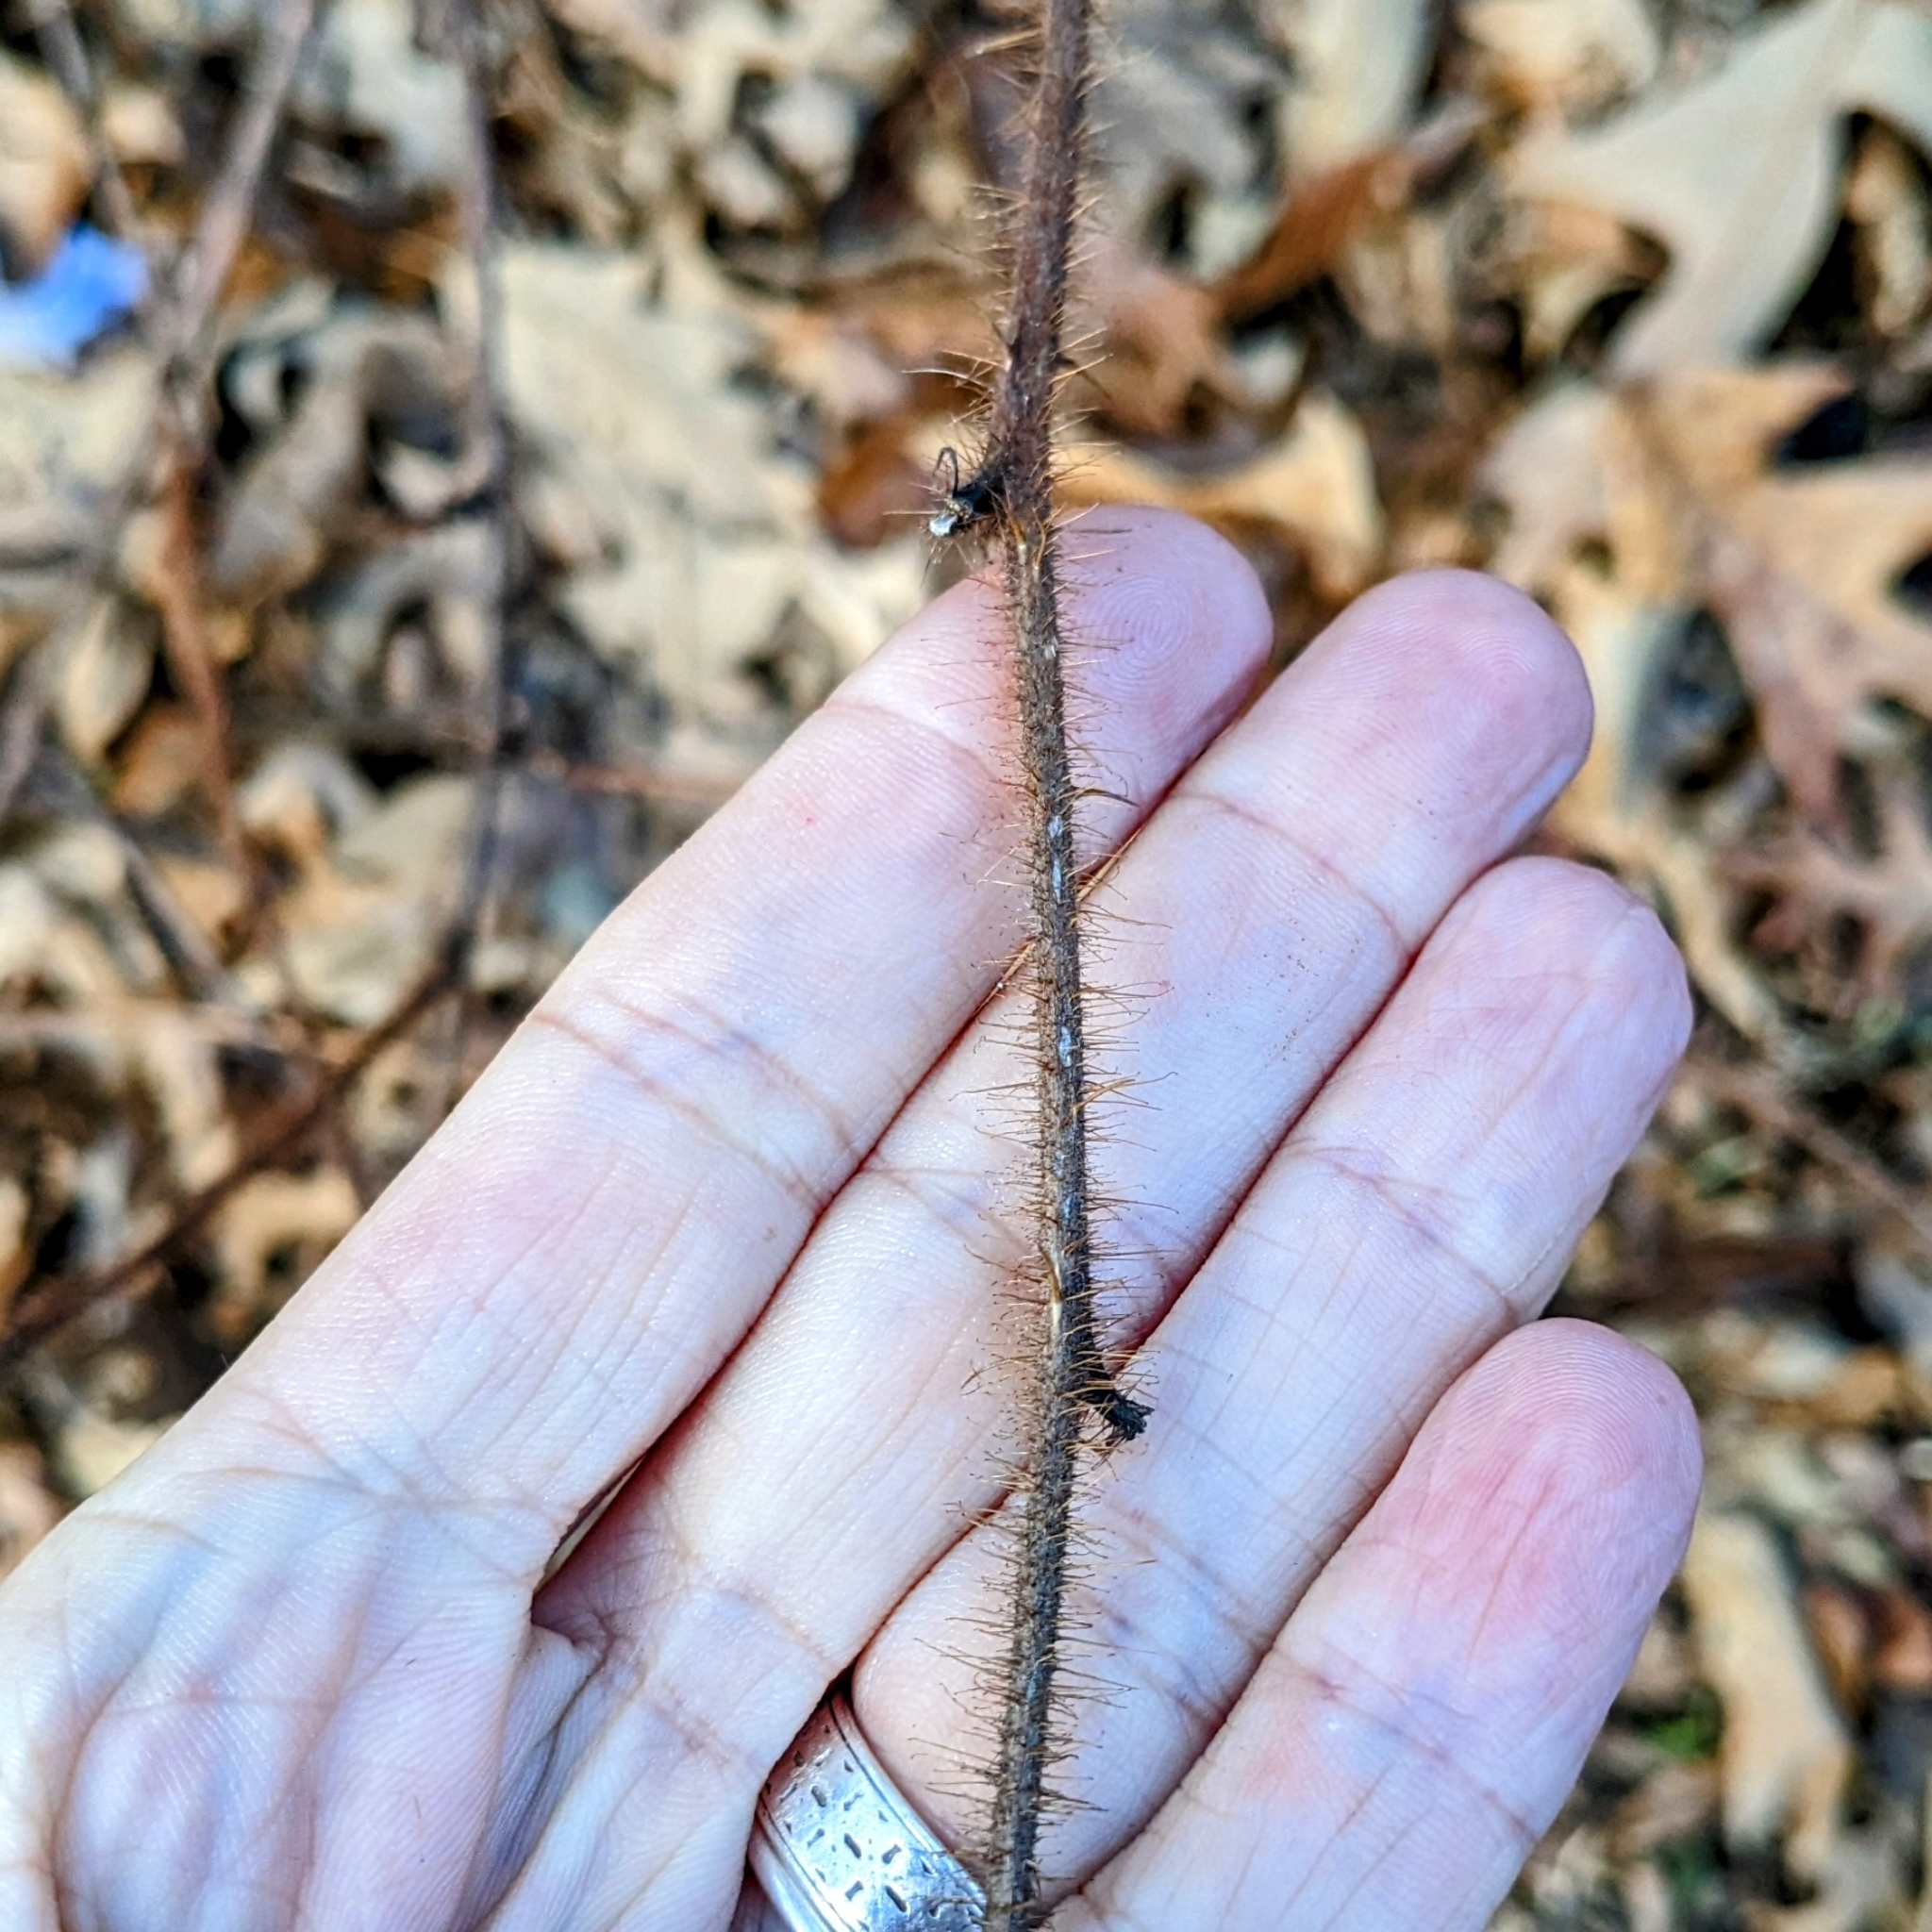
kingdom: Plantae
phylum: Tracheophyta
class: Magnoliopsida
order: Rosales
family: Rosaceae
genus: Rubus
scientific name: Rubus phoenicolasius
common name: Japanese wineberry
